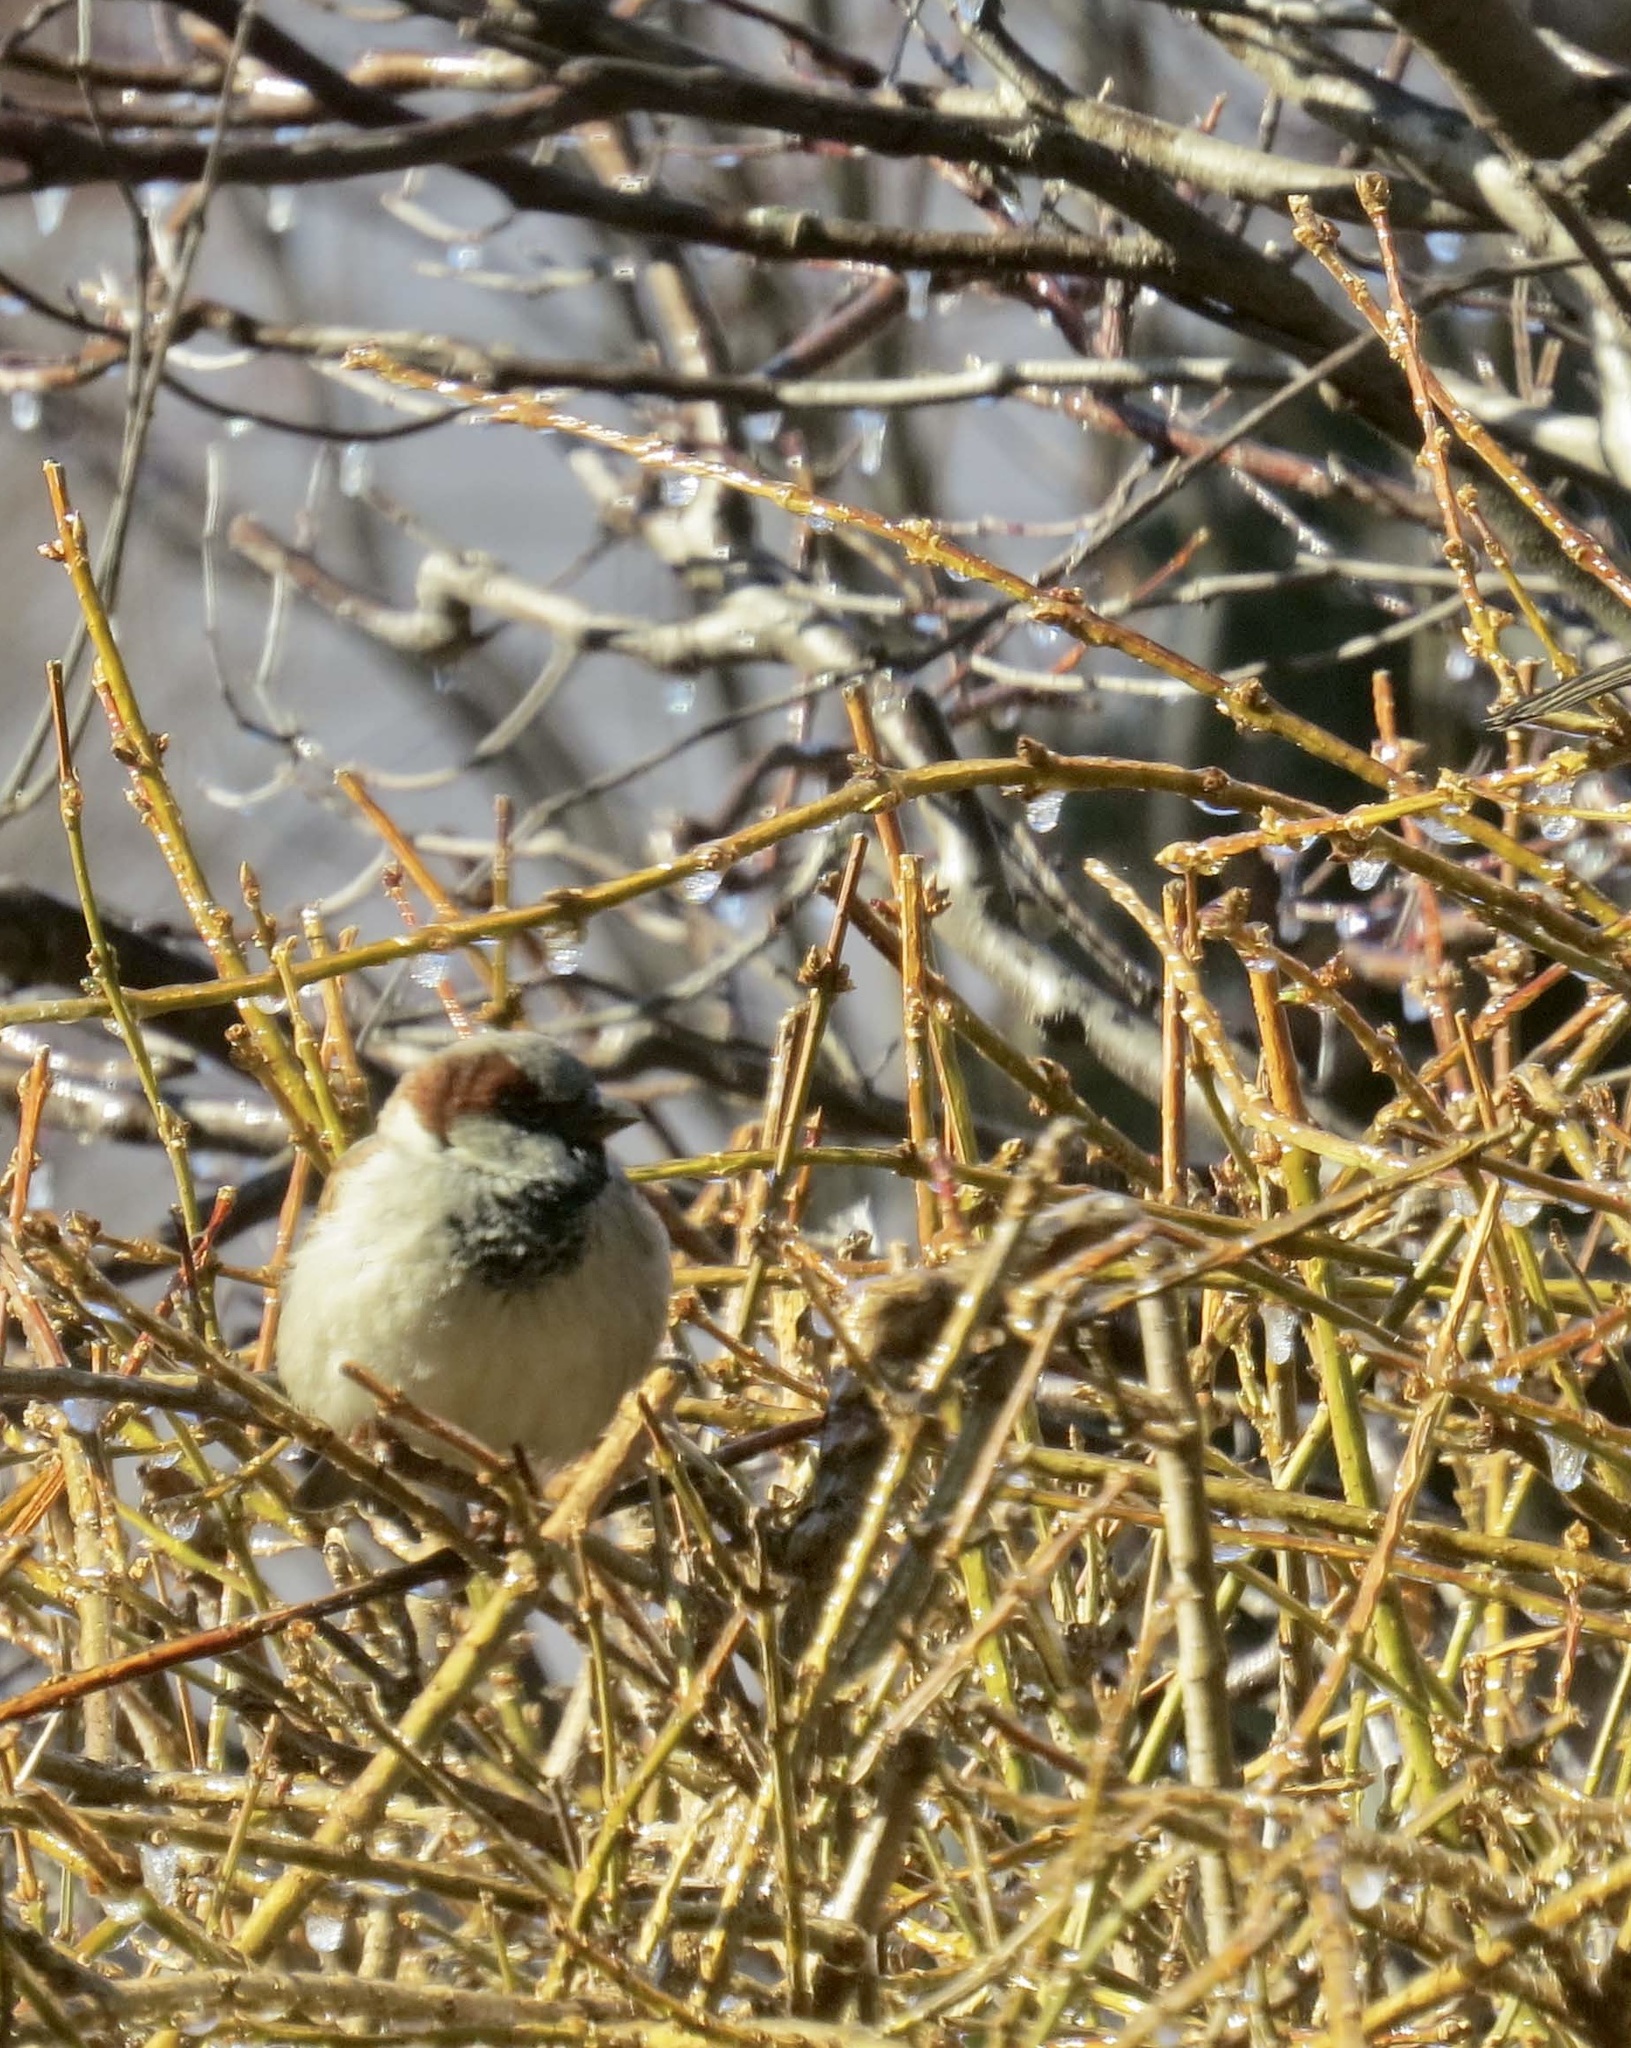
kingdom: Animalia
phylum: Chordata
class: Aves
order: Passeriformes
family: Passeridae
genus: Passer
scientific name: Passer domesticus
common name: House sparrow
